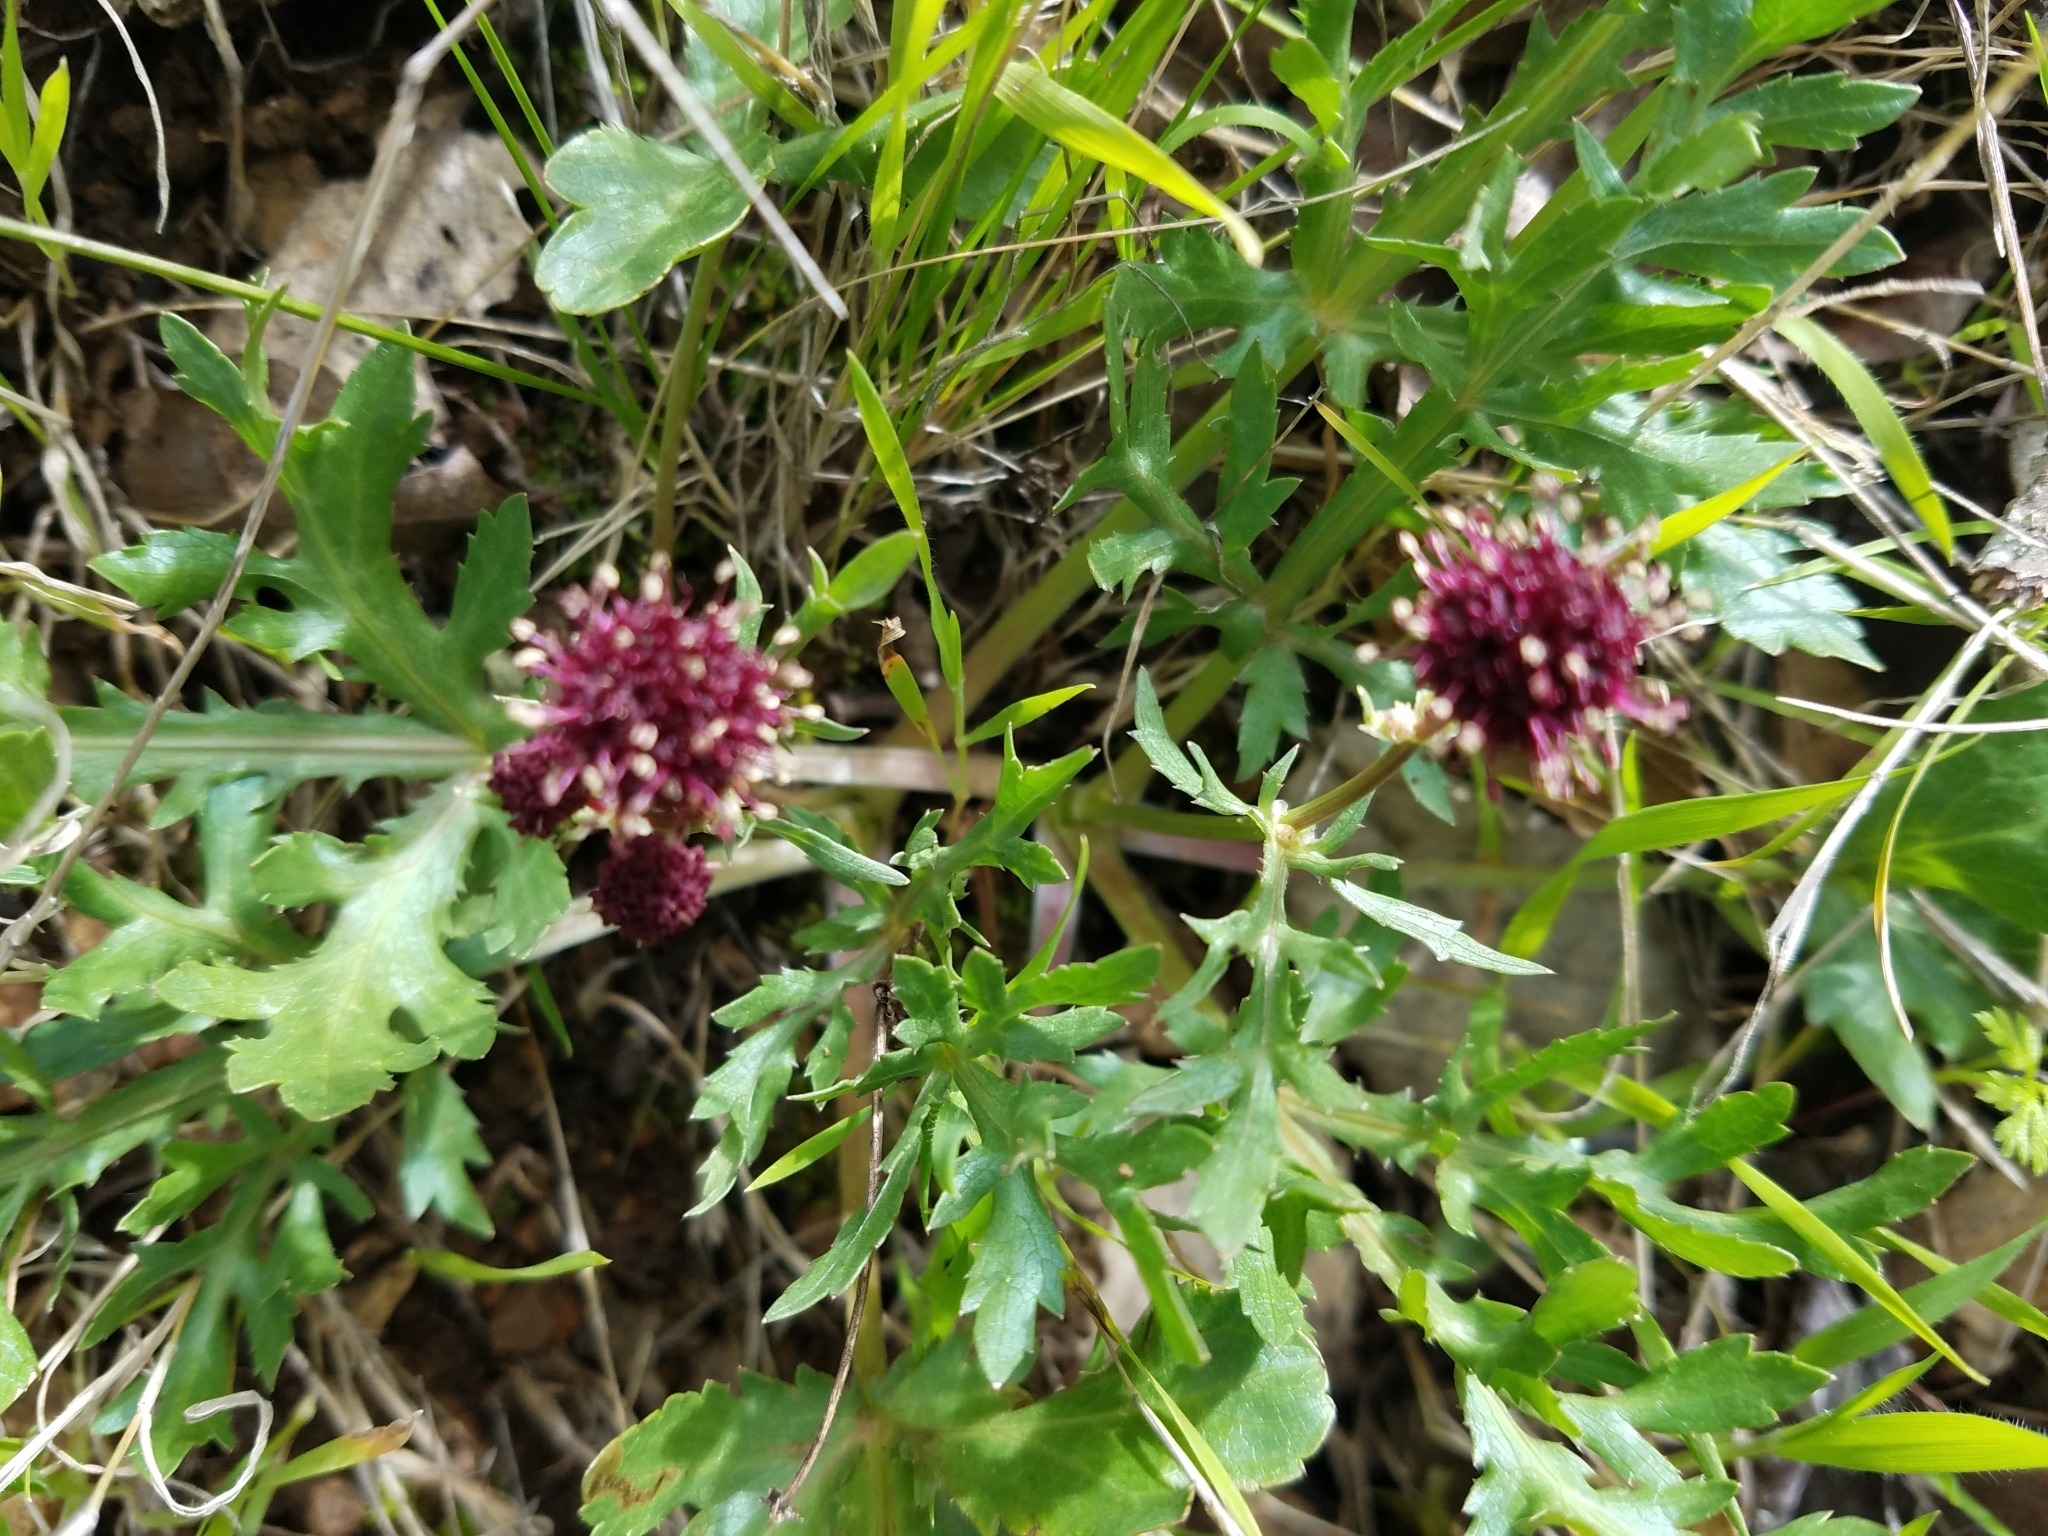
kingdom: Plantae
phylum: Tracheophyta
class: Magnoliopsida
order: Apiales
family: Apiaceae
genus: Sanicula
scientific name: Sanicula bipinnatifida
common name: Shoe-buttons
